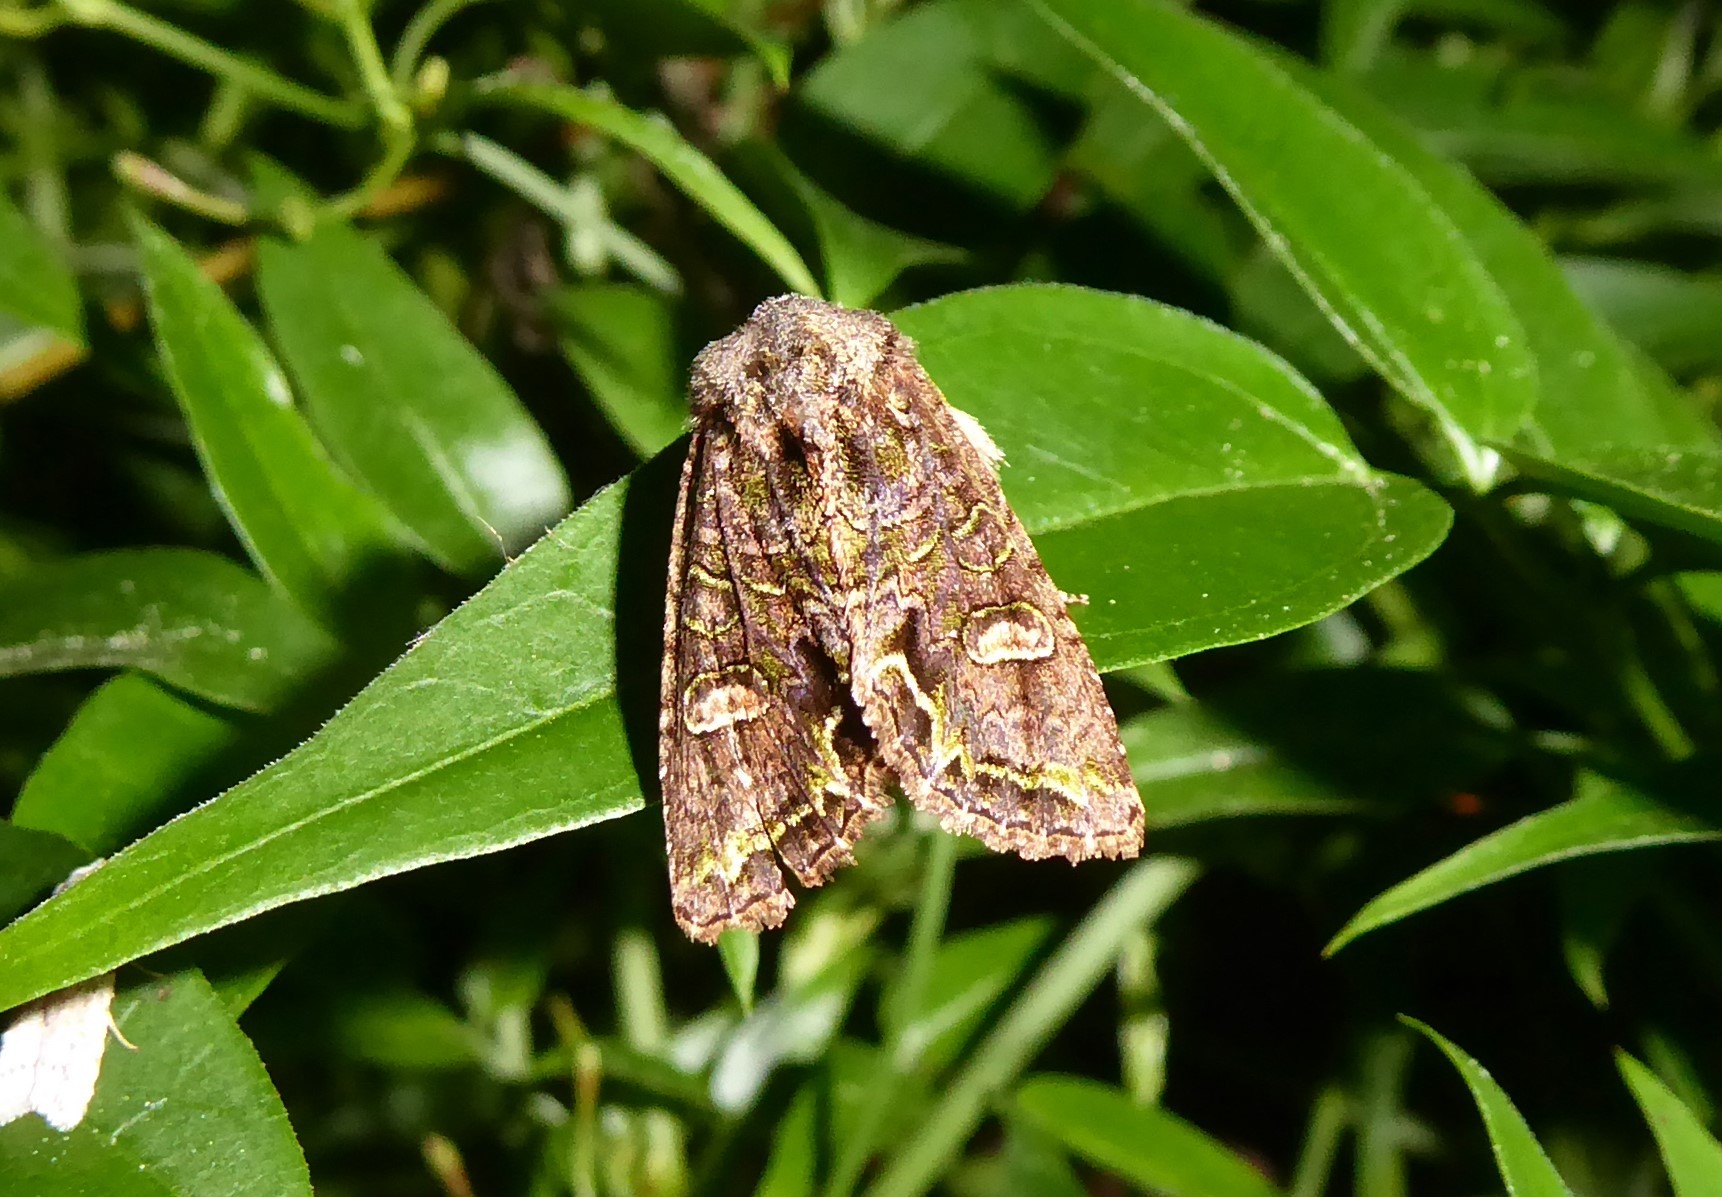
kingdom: Animalia
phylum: Arthropoda
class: Insecta
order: Lepidoptera
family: Noctuidae
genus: Ichneutica
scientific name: Ichneutica insignis
